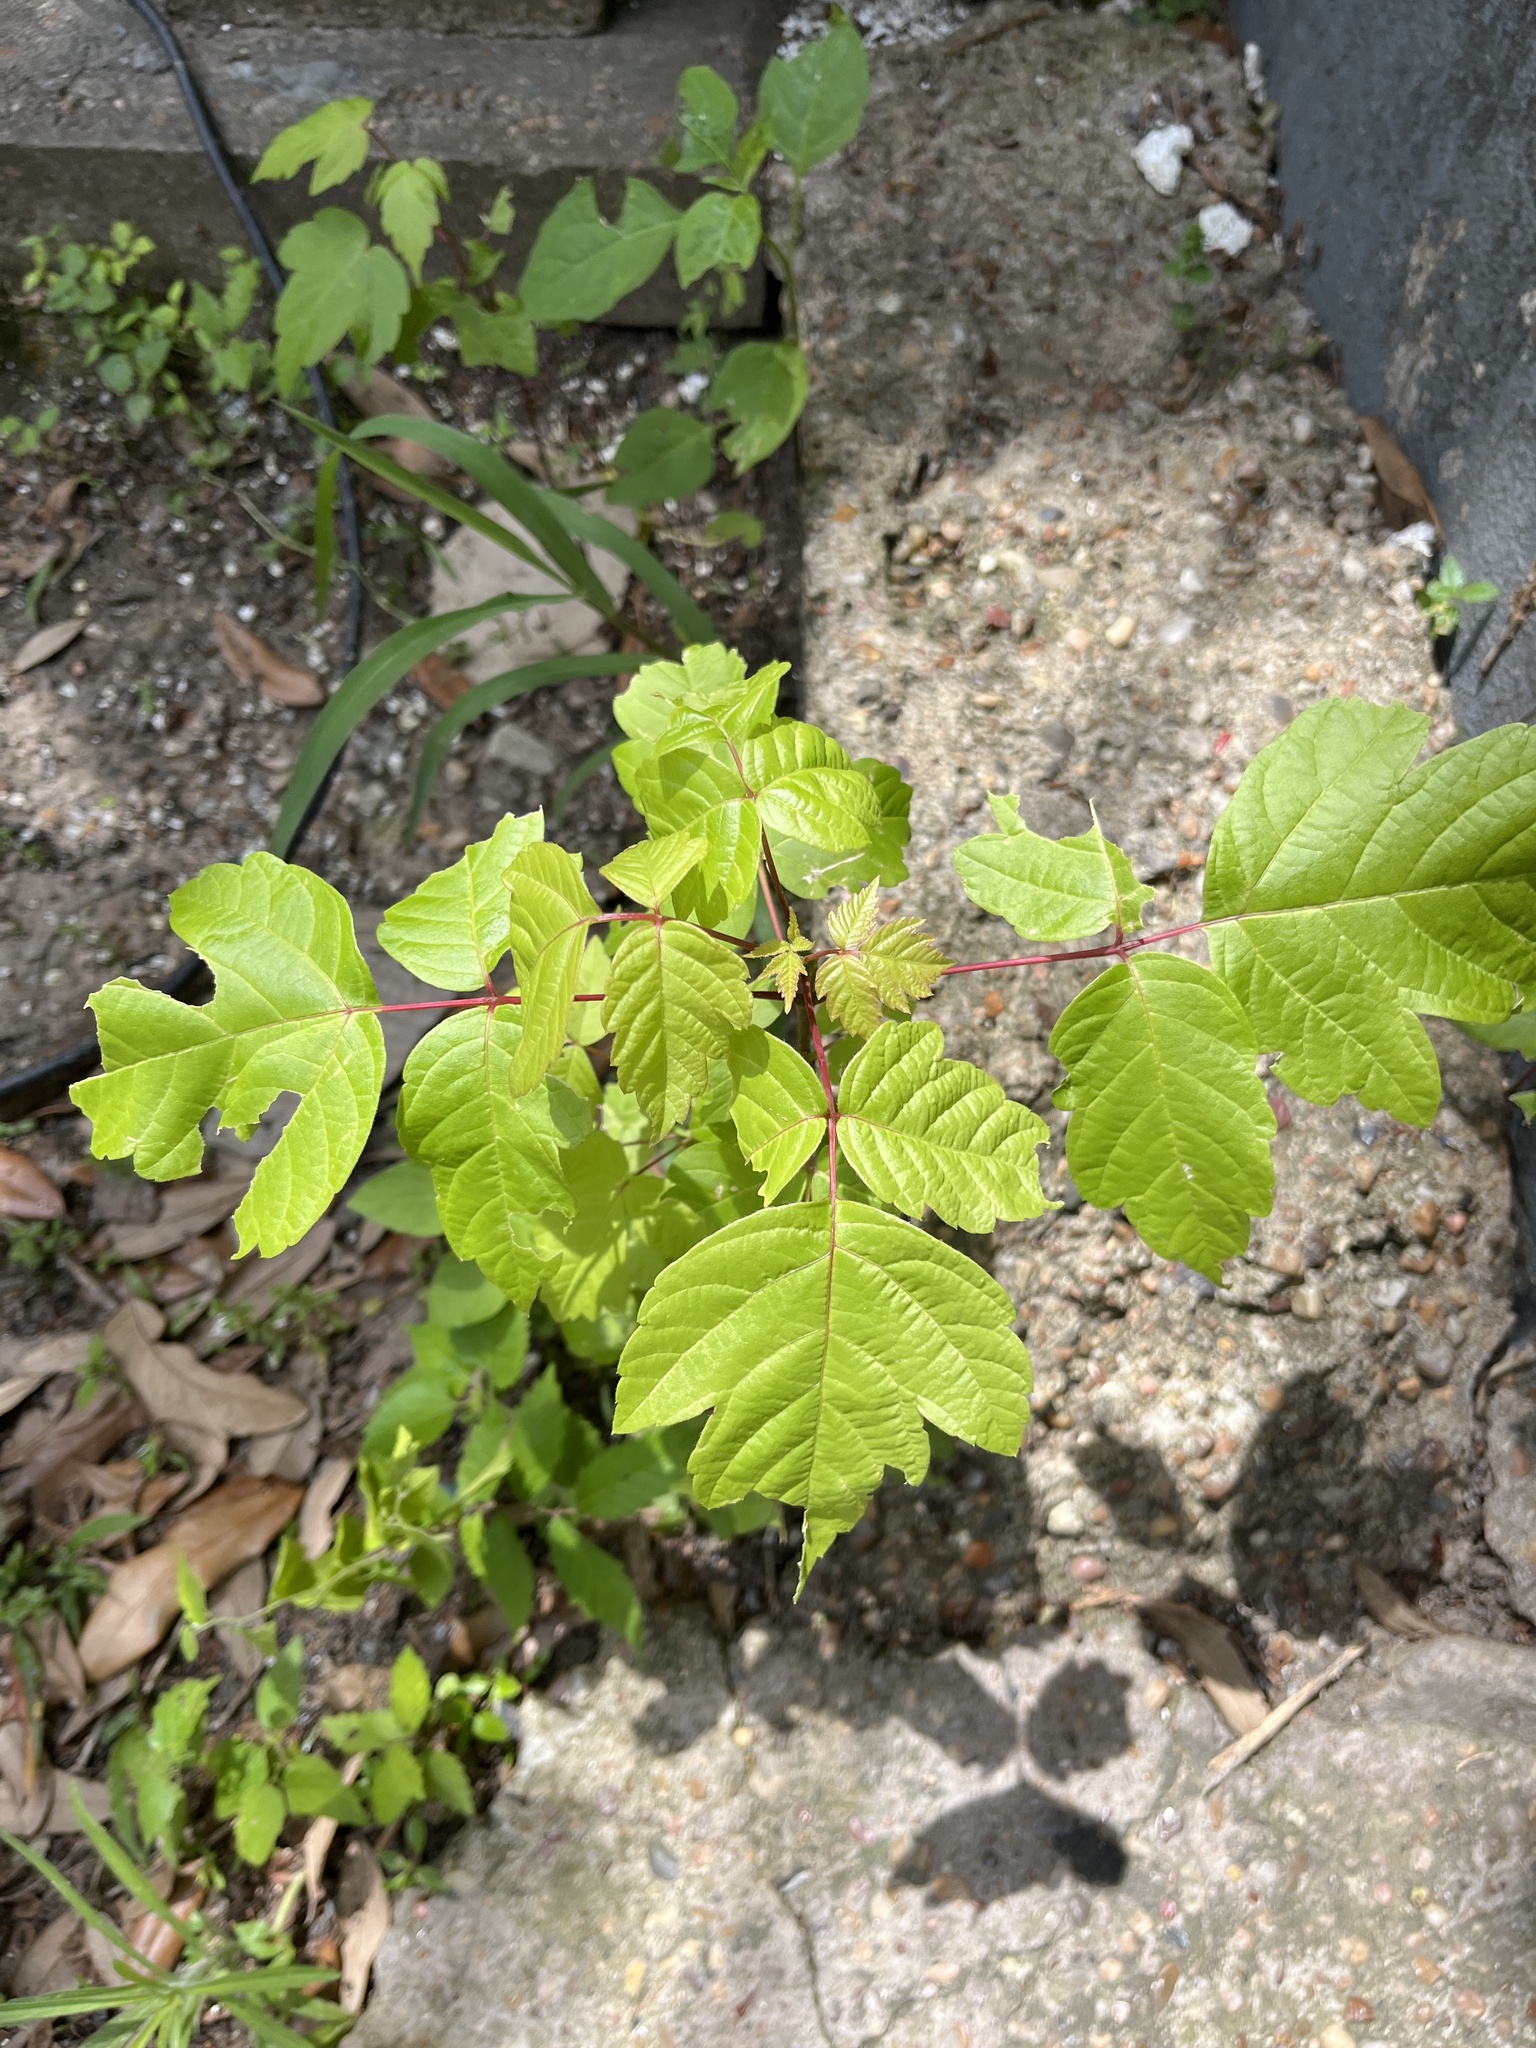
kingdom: Plantae
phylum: Tracheophyta
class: Magnoliopsida
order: Sapindales
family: Sapindaceae
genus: Acer
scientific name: Acer negundo
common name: Ashleaf maple
